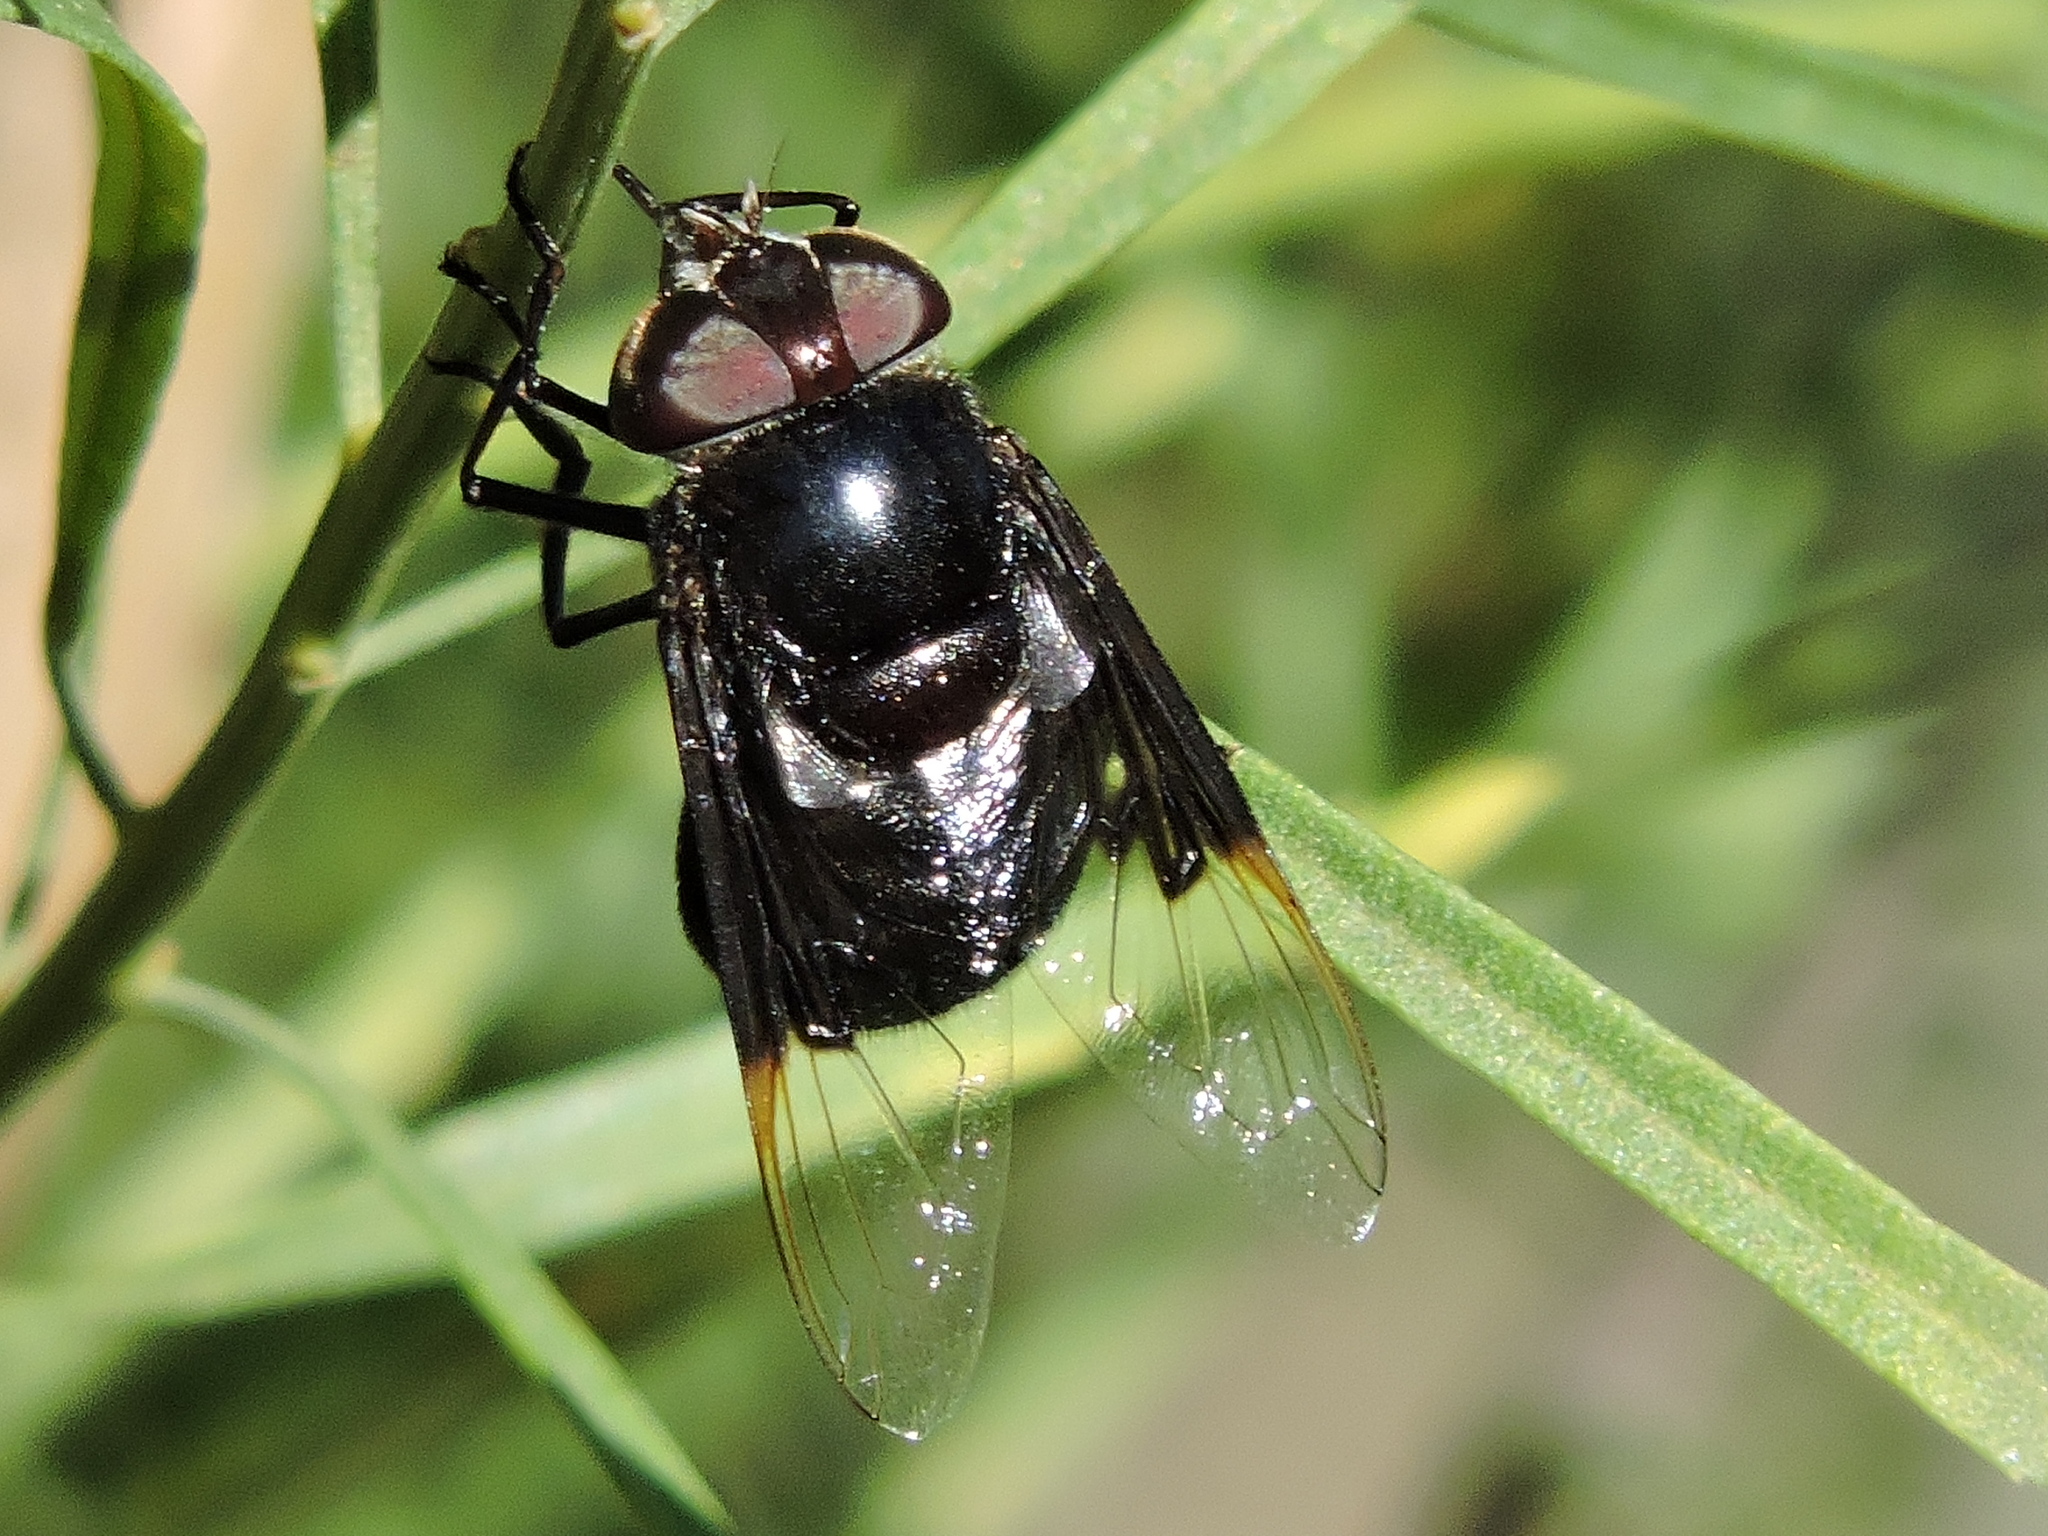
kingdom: Animalia
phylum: Arthropoda
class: Insecta
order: Diptera
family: Syrphidae
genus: Copestylum
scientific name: Copestylum mexicanum
